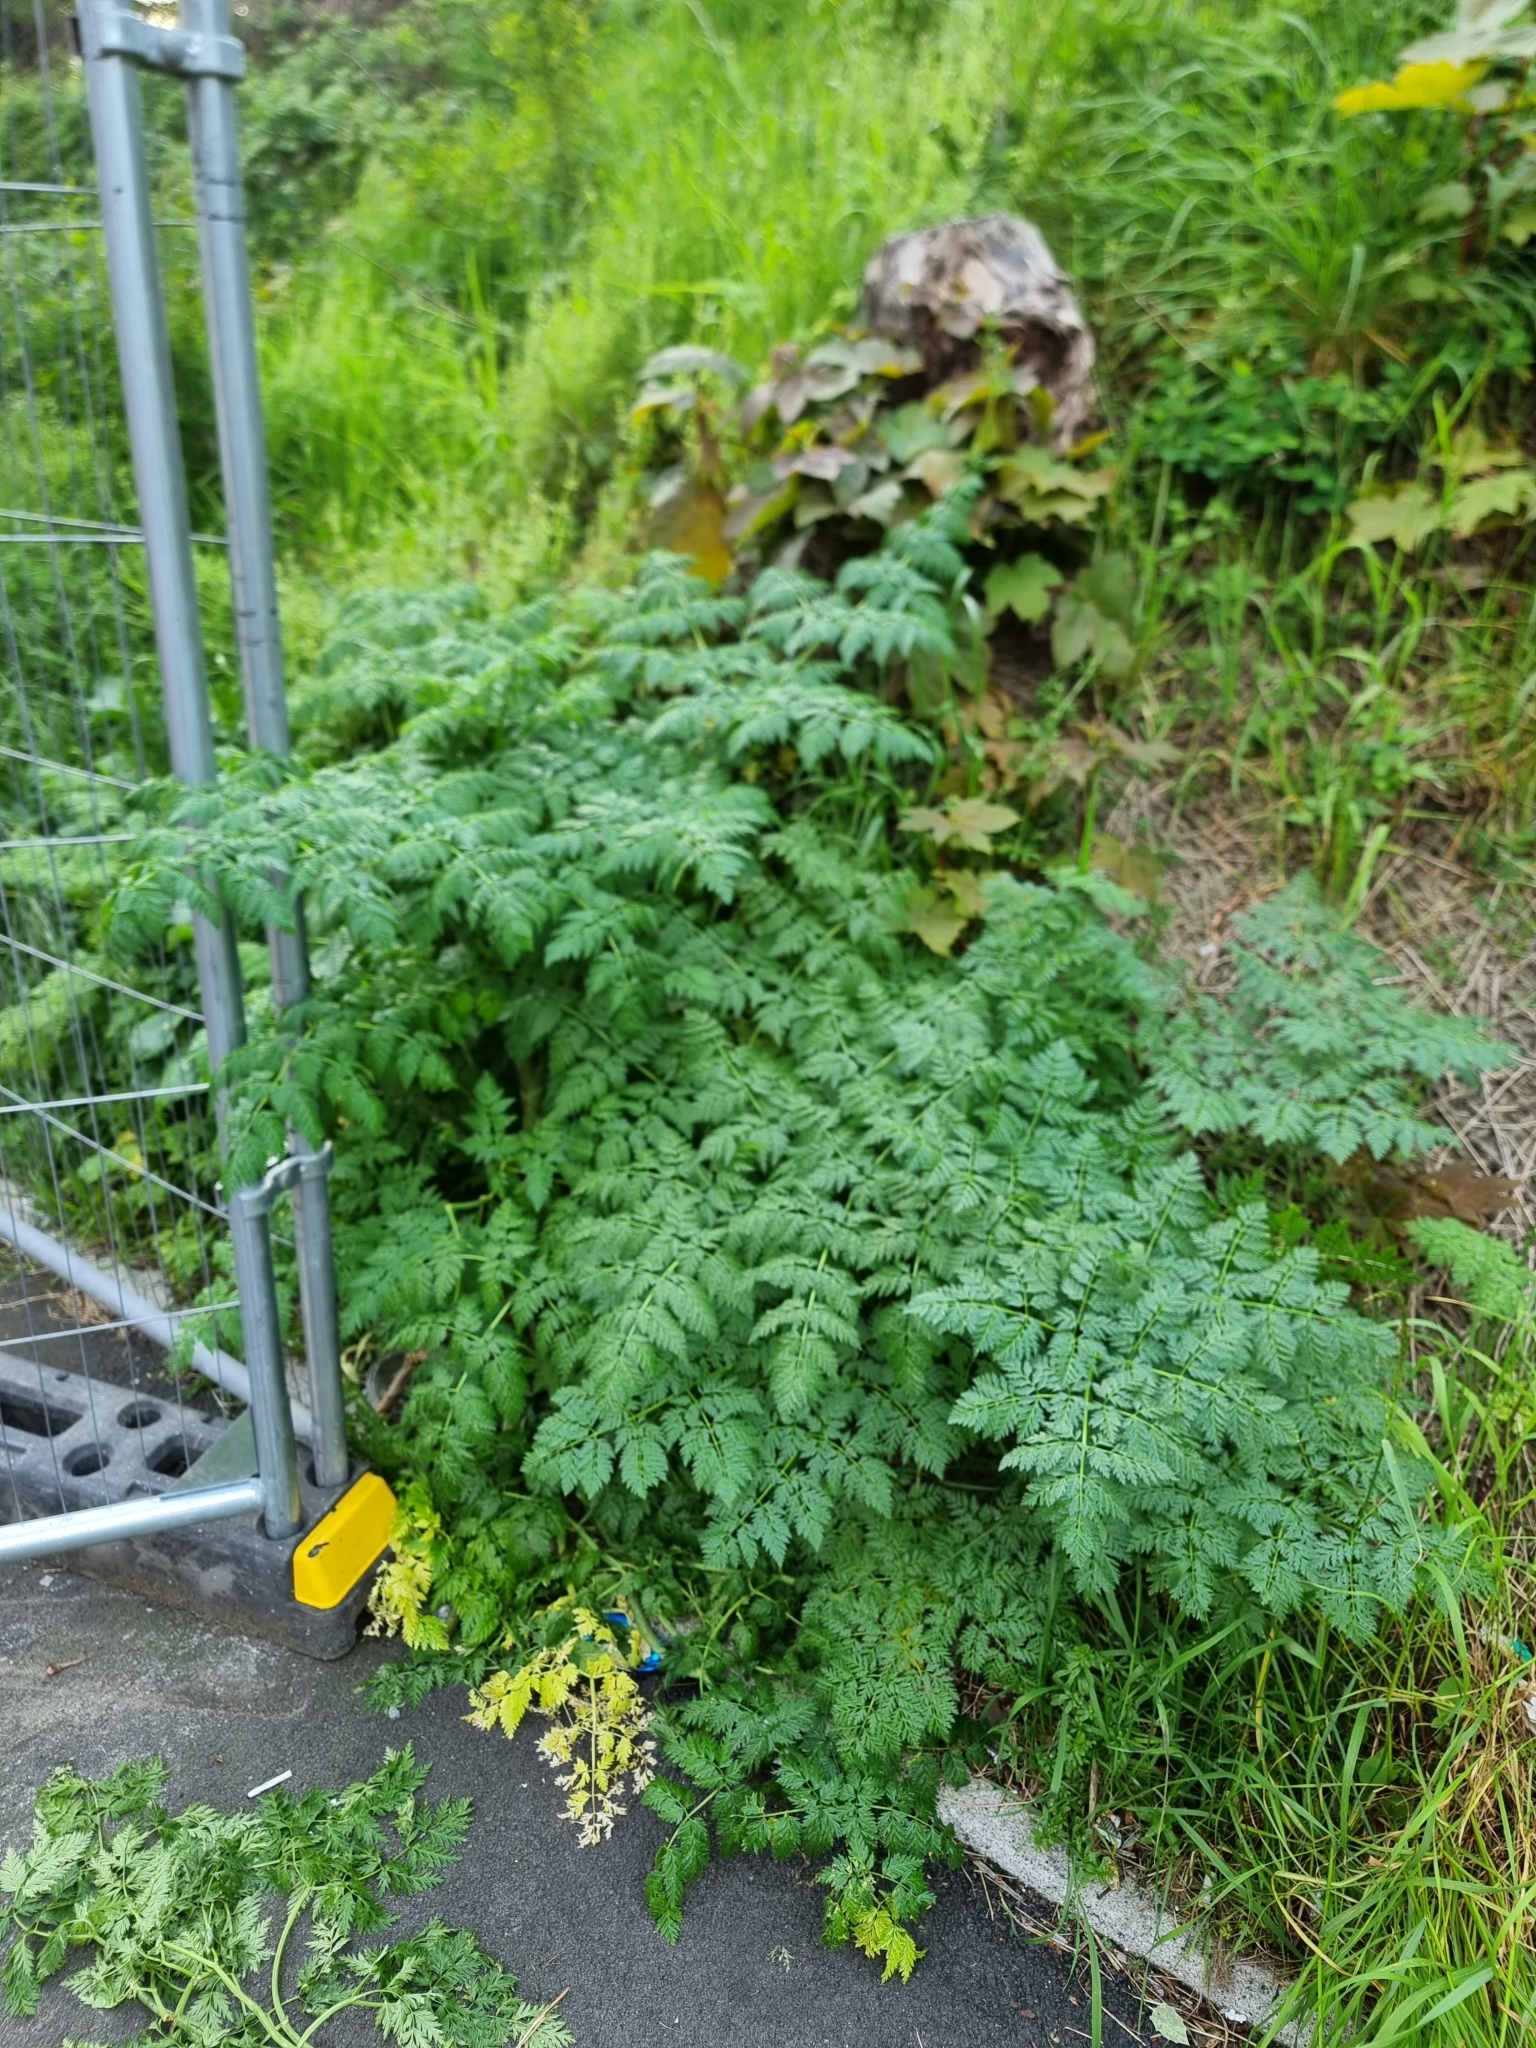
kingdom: Plantae
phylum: Tracheophyta
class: Magnoliopsida
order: Apiales
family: Apiaceae
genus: Conium
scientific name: Conium maculatum
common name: Hemlock
